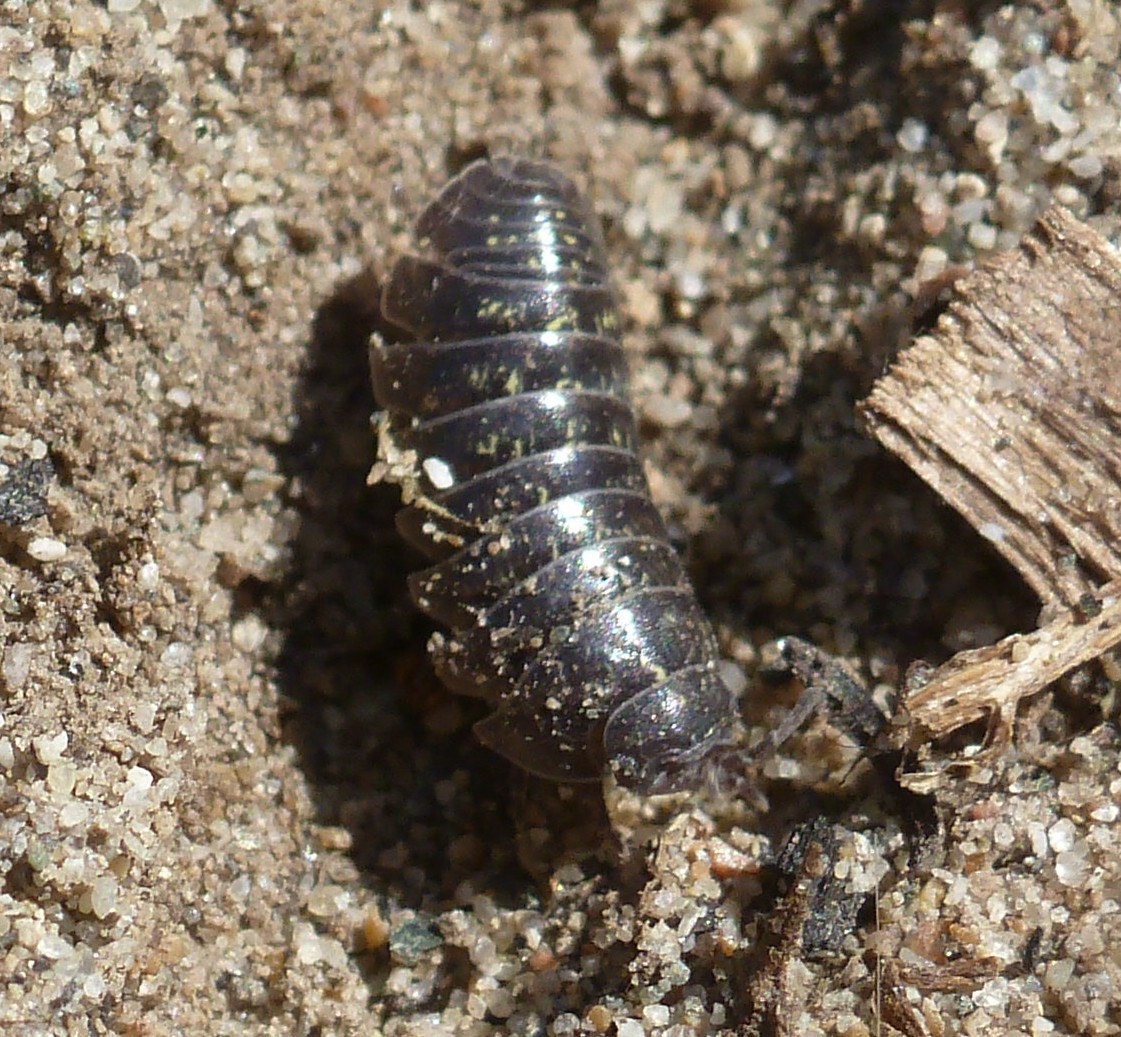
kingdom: Animalia
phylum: Arthropoda
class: Malacostraca
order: Isopoda
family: Armadillidiidae
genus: Armadillidium
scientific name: Armadillidium vulgare
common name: Common pill woodlouse
